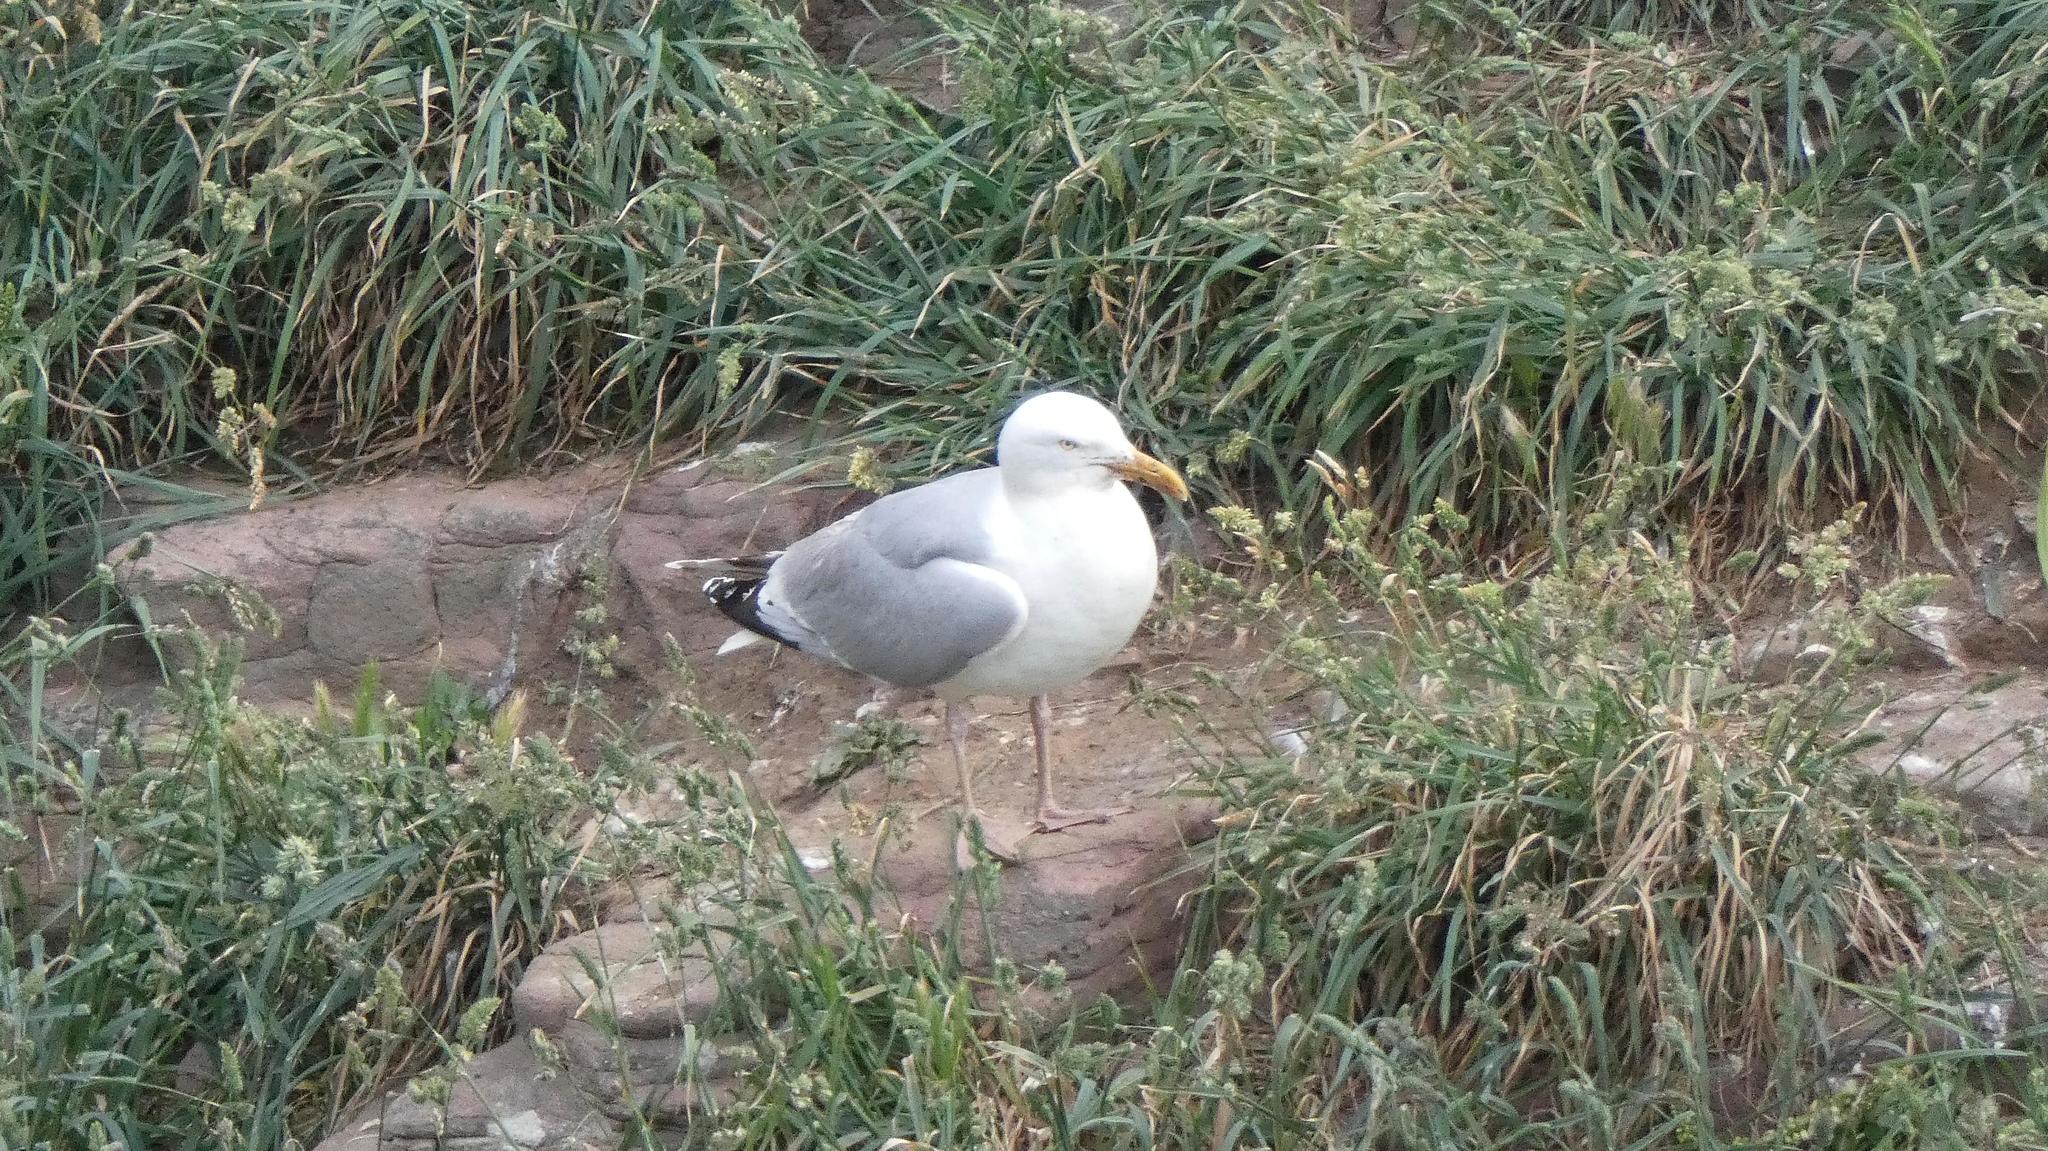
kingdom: Animalia
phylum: Chordata
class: Aves
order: Charadriiformes
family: Laridae
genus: Larus
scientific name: Larus argentatus
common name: Herring gull
